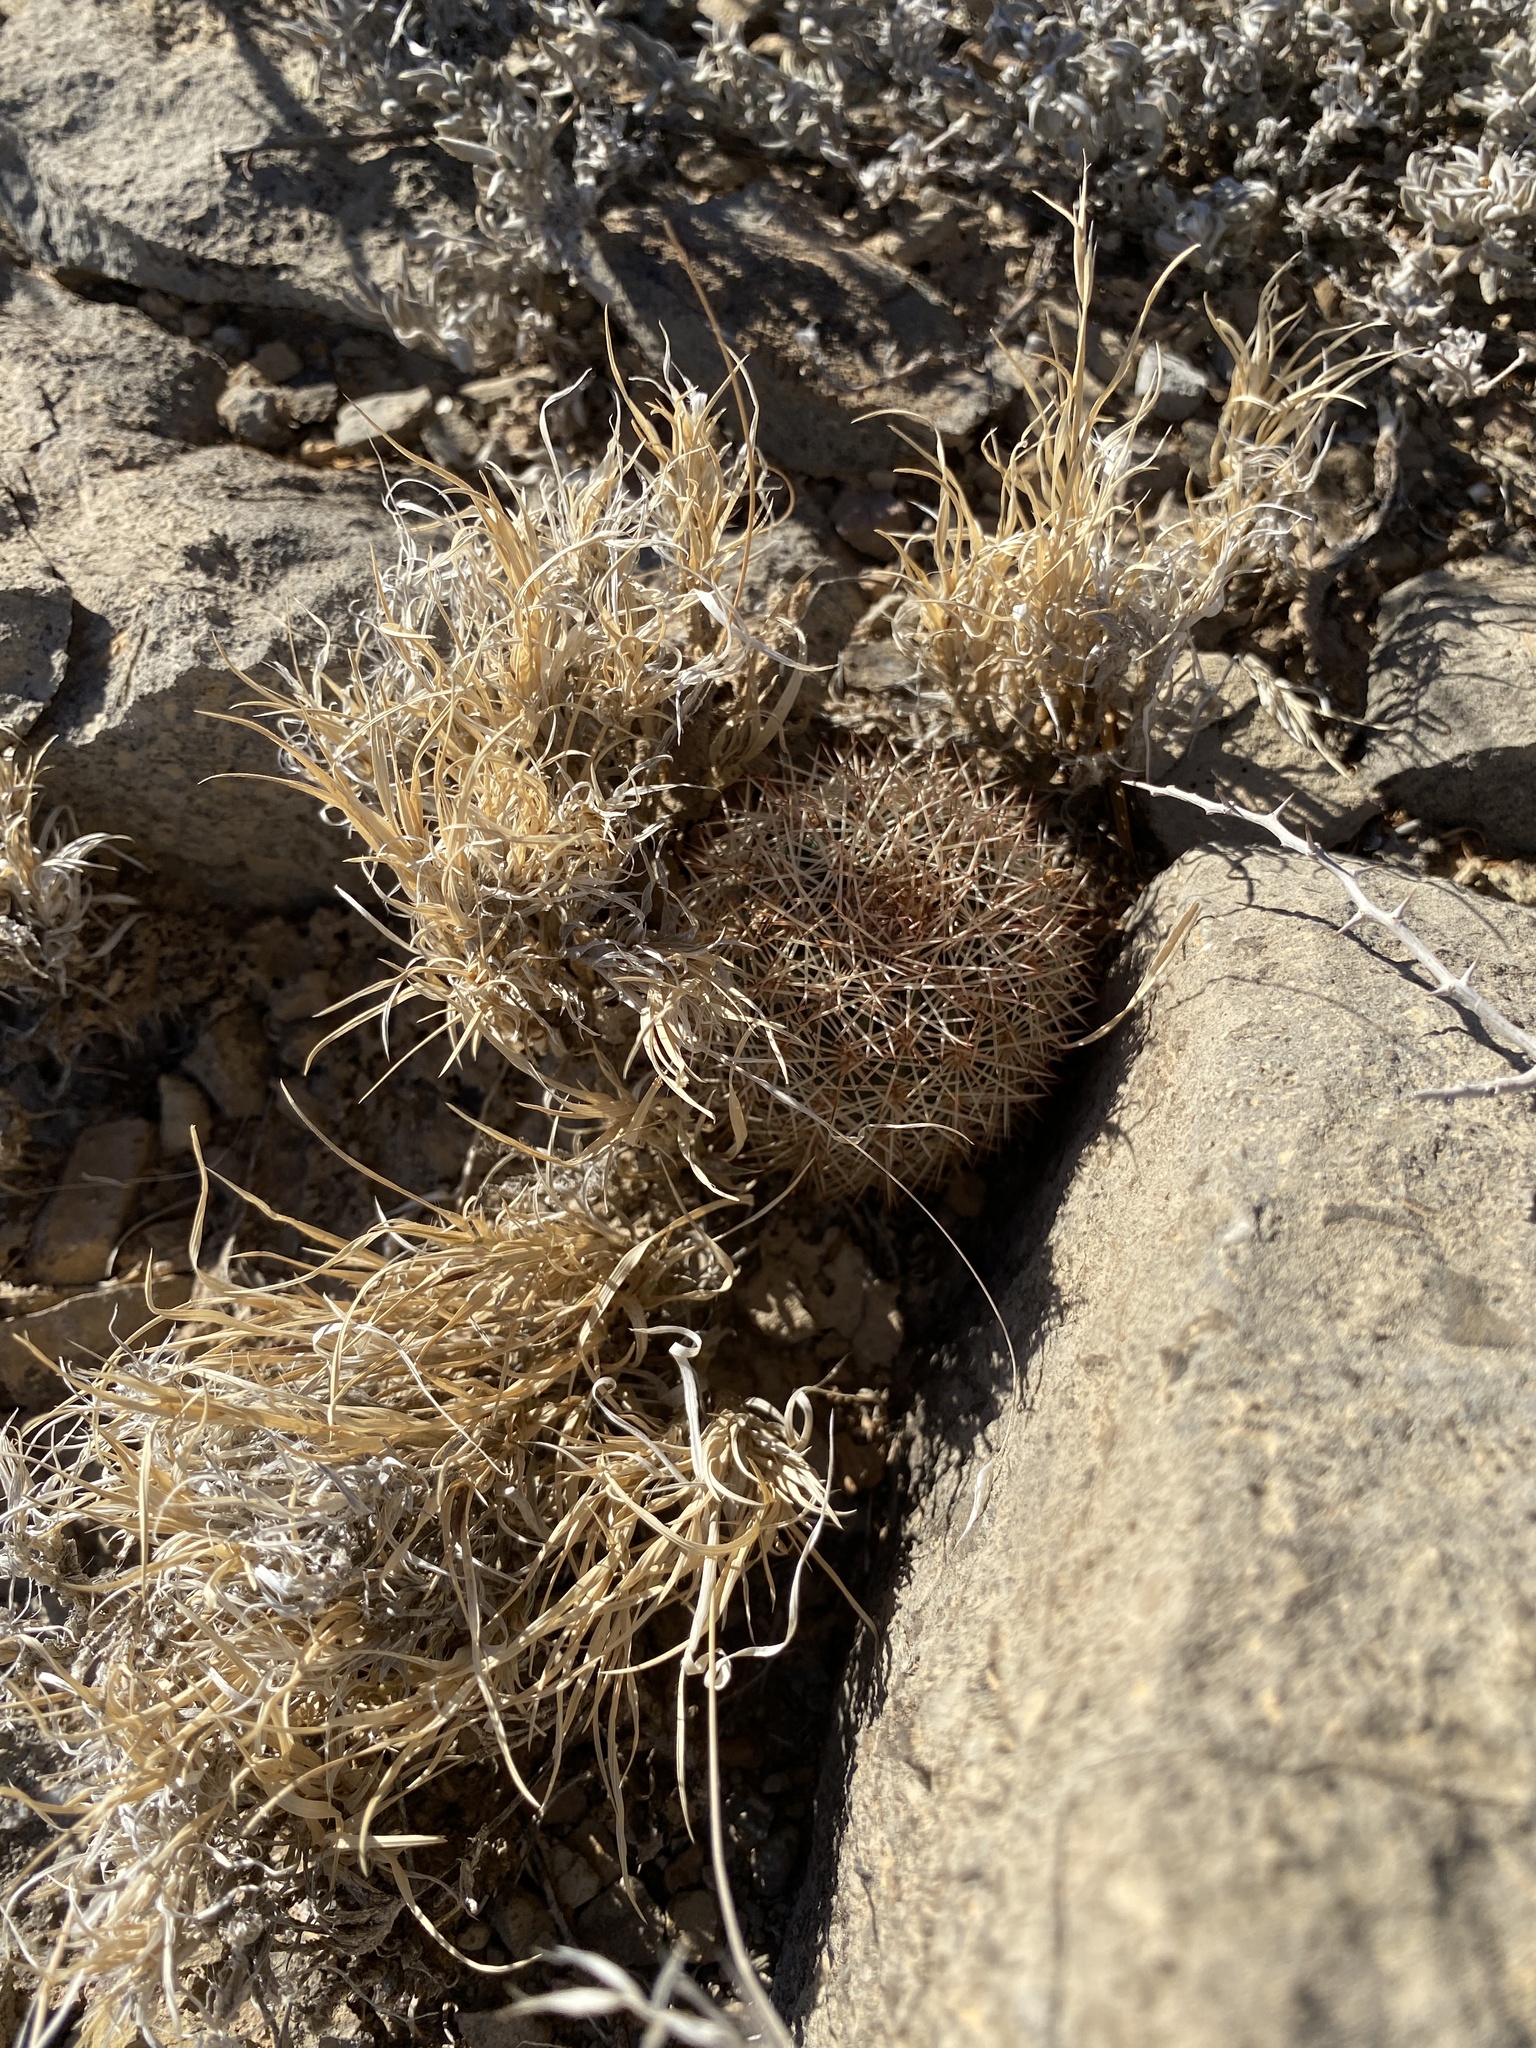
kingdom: Plantae
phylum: Tracheophyta
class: Magnoliopsida
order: Caryophyllales
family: Cactaceae
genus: Echinocereus
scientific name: Echinocereus dasyacanthus
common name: Spiny hedgehog cactus
